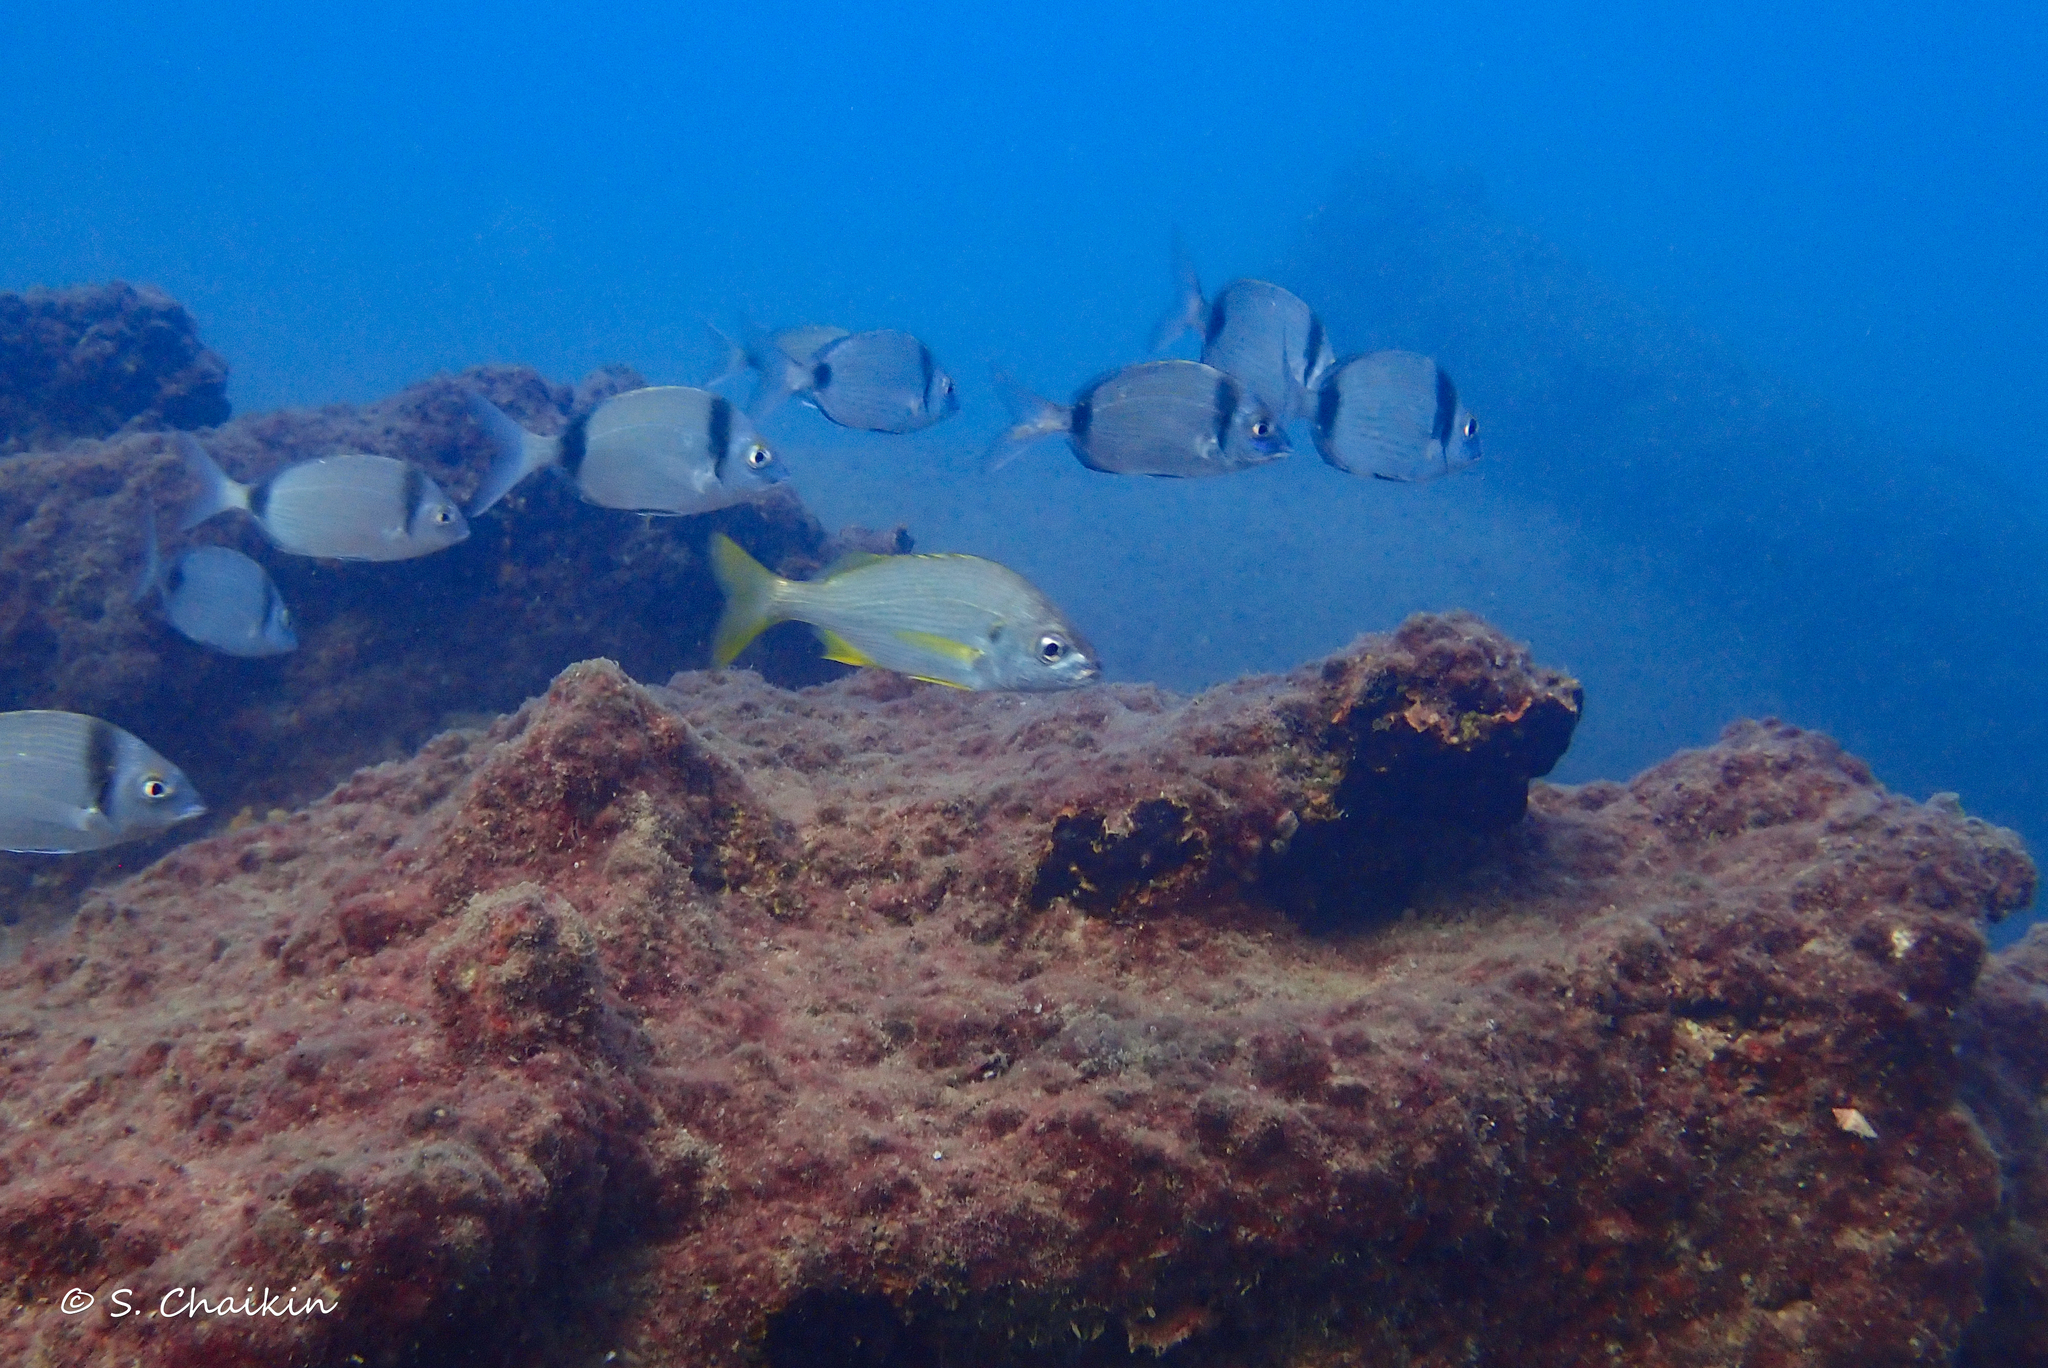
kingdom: Animalia
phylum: Chordata
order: Perciformes
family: Haemulidae
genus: Pomadasys
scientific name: Pomadasys incisus
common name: Bastard grunt
